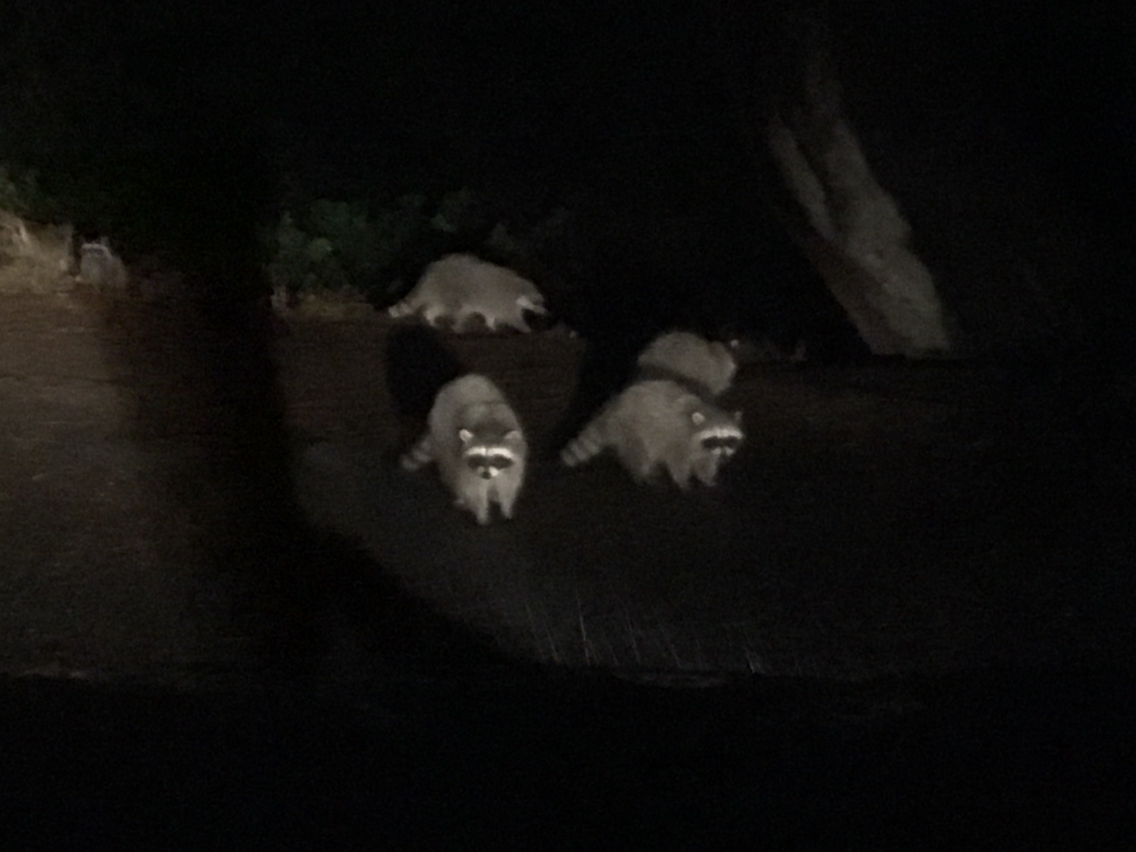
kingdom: Animalia
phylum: Chordata
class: Mammalia
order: Carnivora
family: Procyonidae
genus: Procyon
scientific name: Procyon lotor
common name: Raccoon
